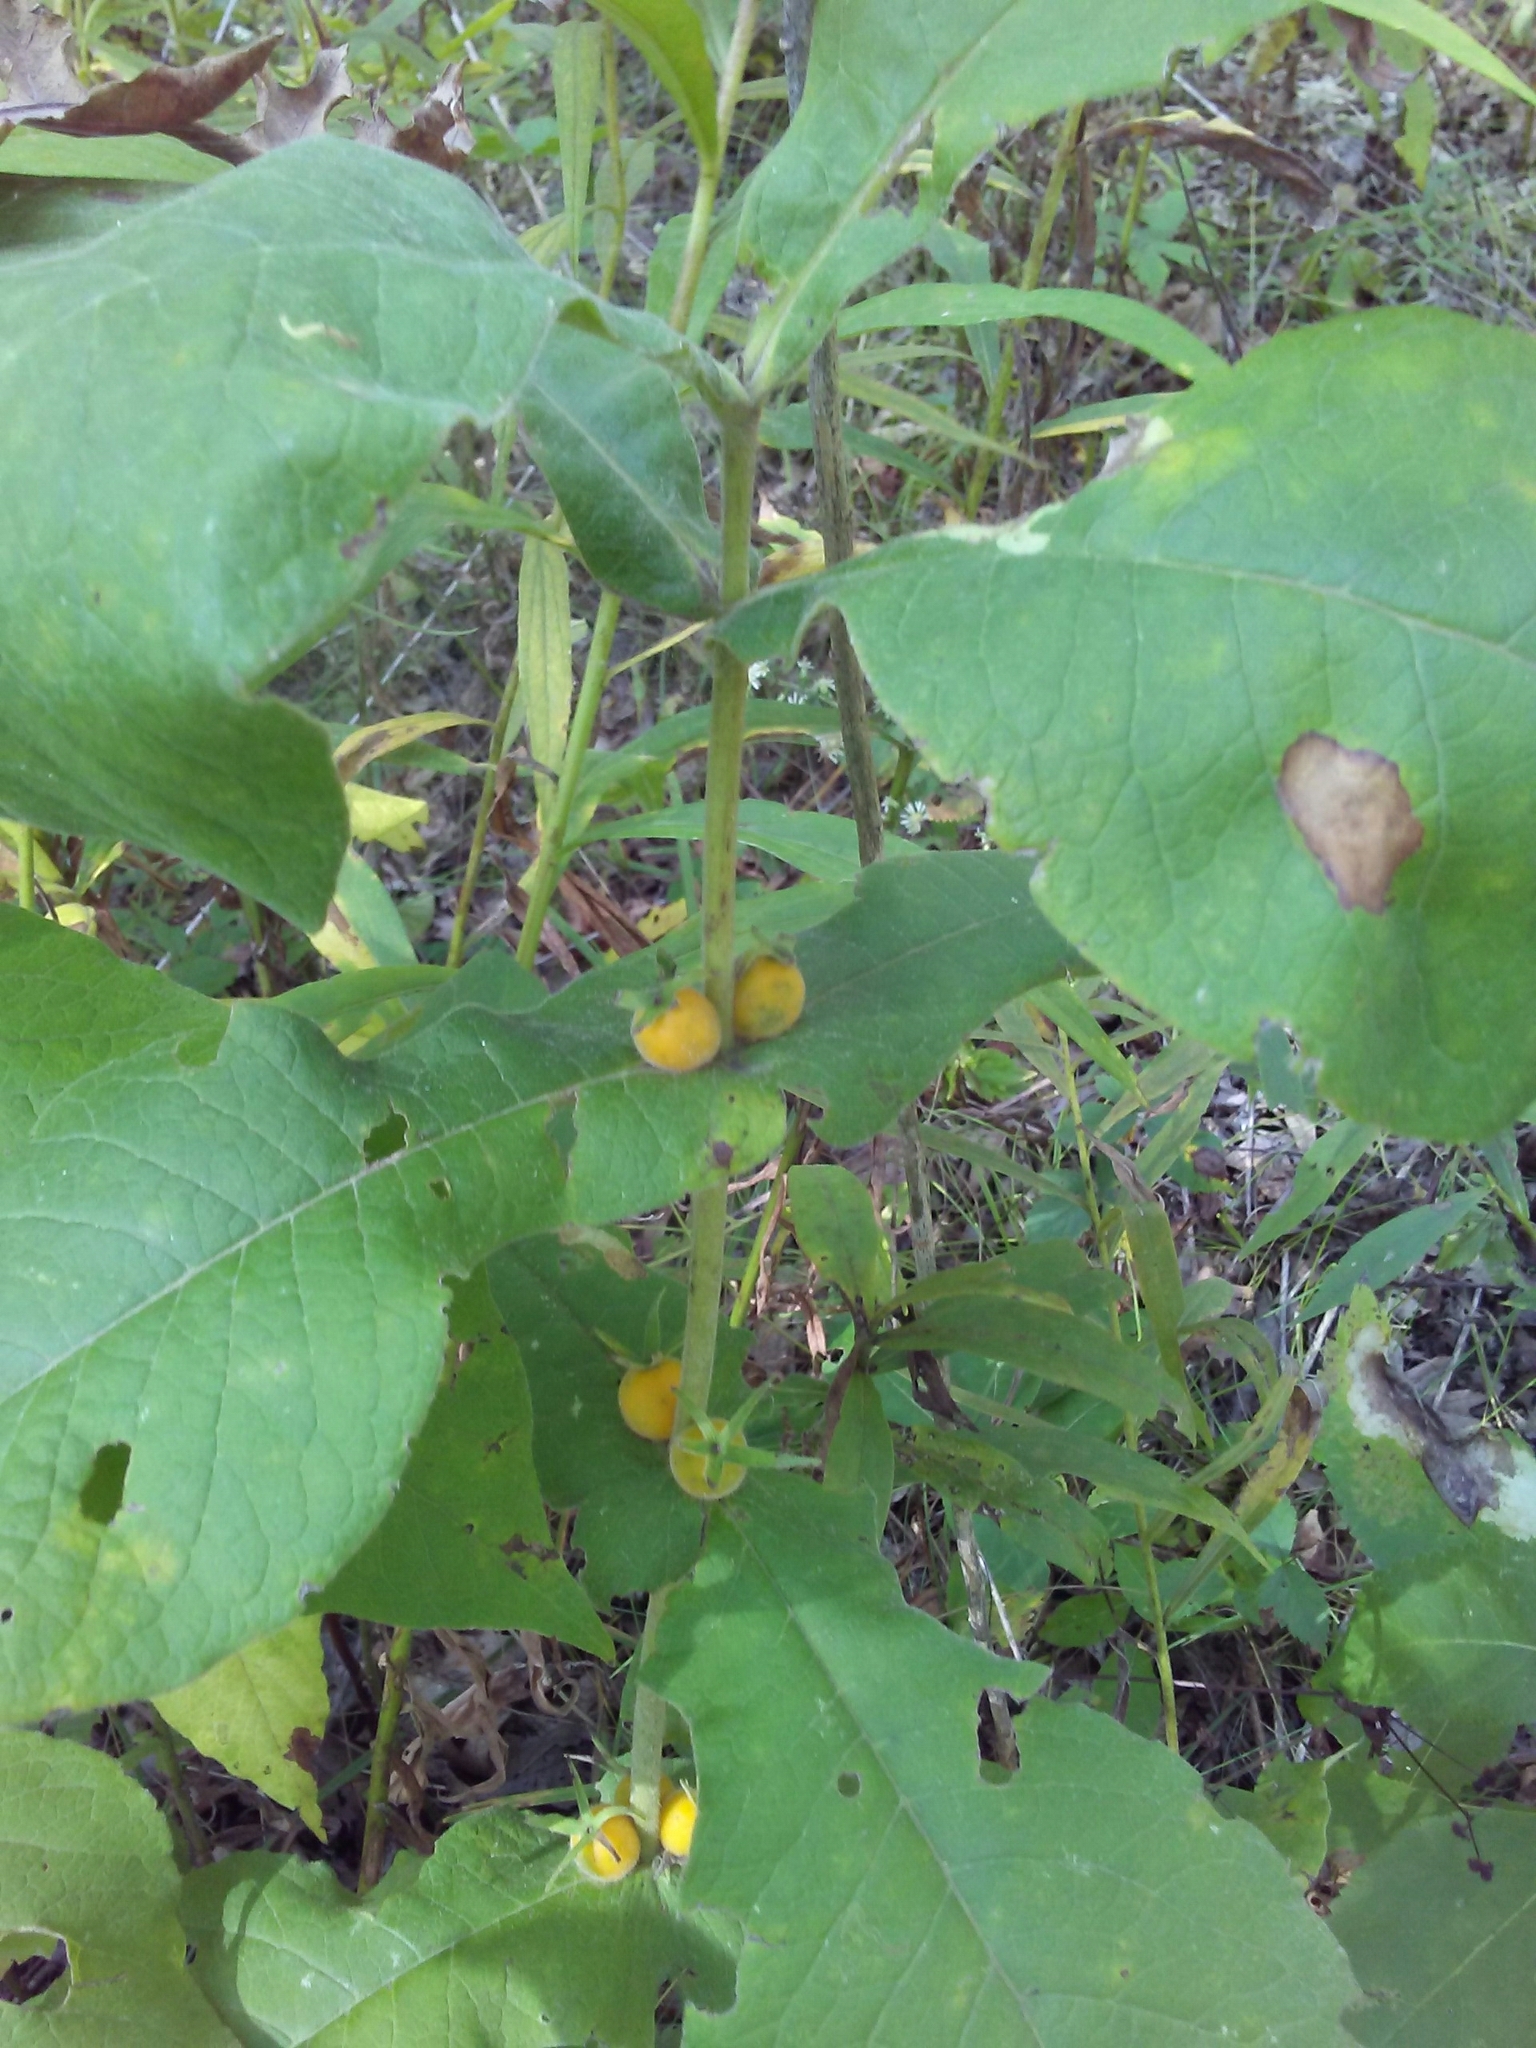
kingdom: Plantae
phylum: Tracheophyta
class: Magnoliopsida
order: Dipsacales
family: Caprifoliaceae
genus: Triosteum
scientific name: Triosteum perfoliatum
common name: Common horse-gentian
